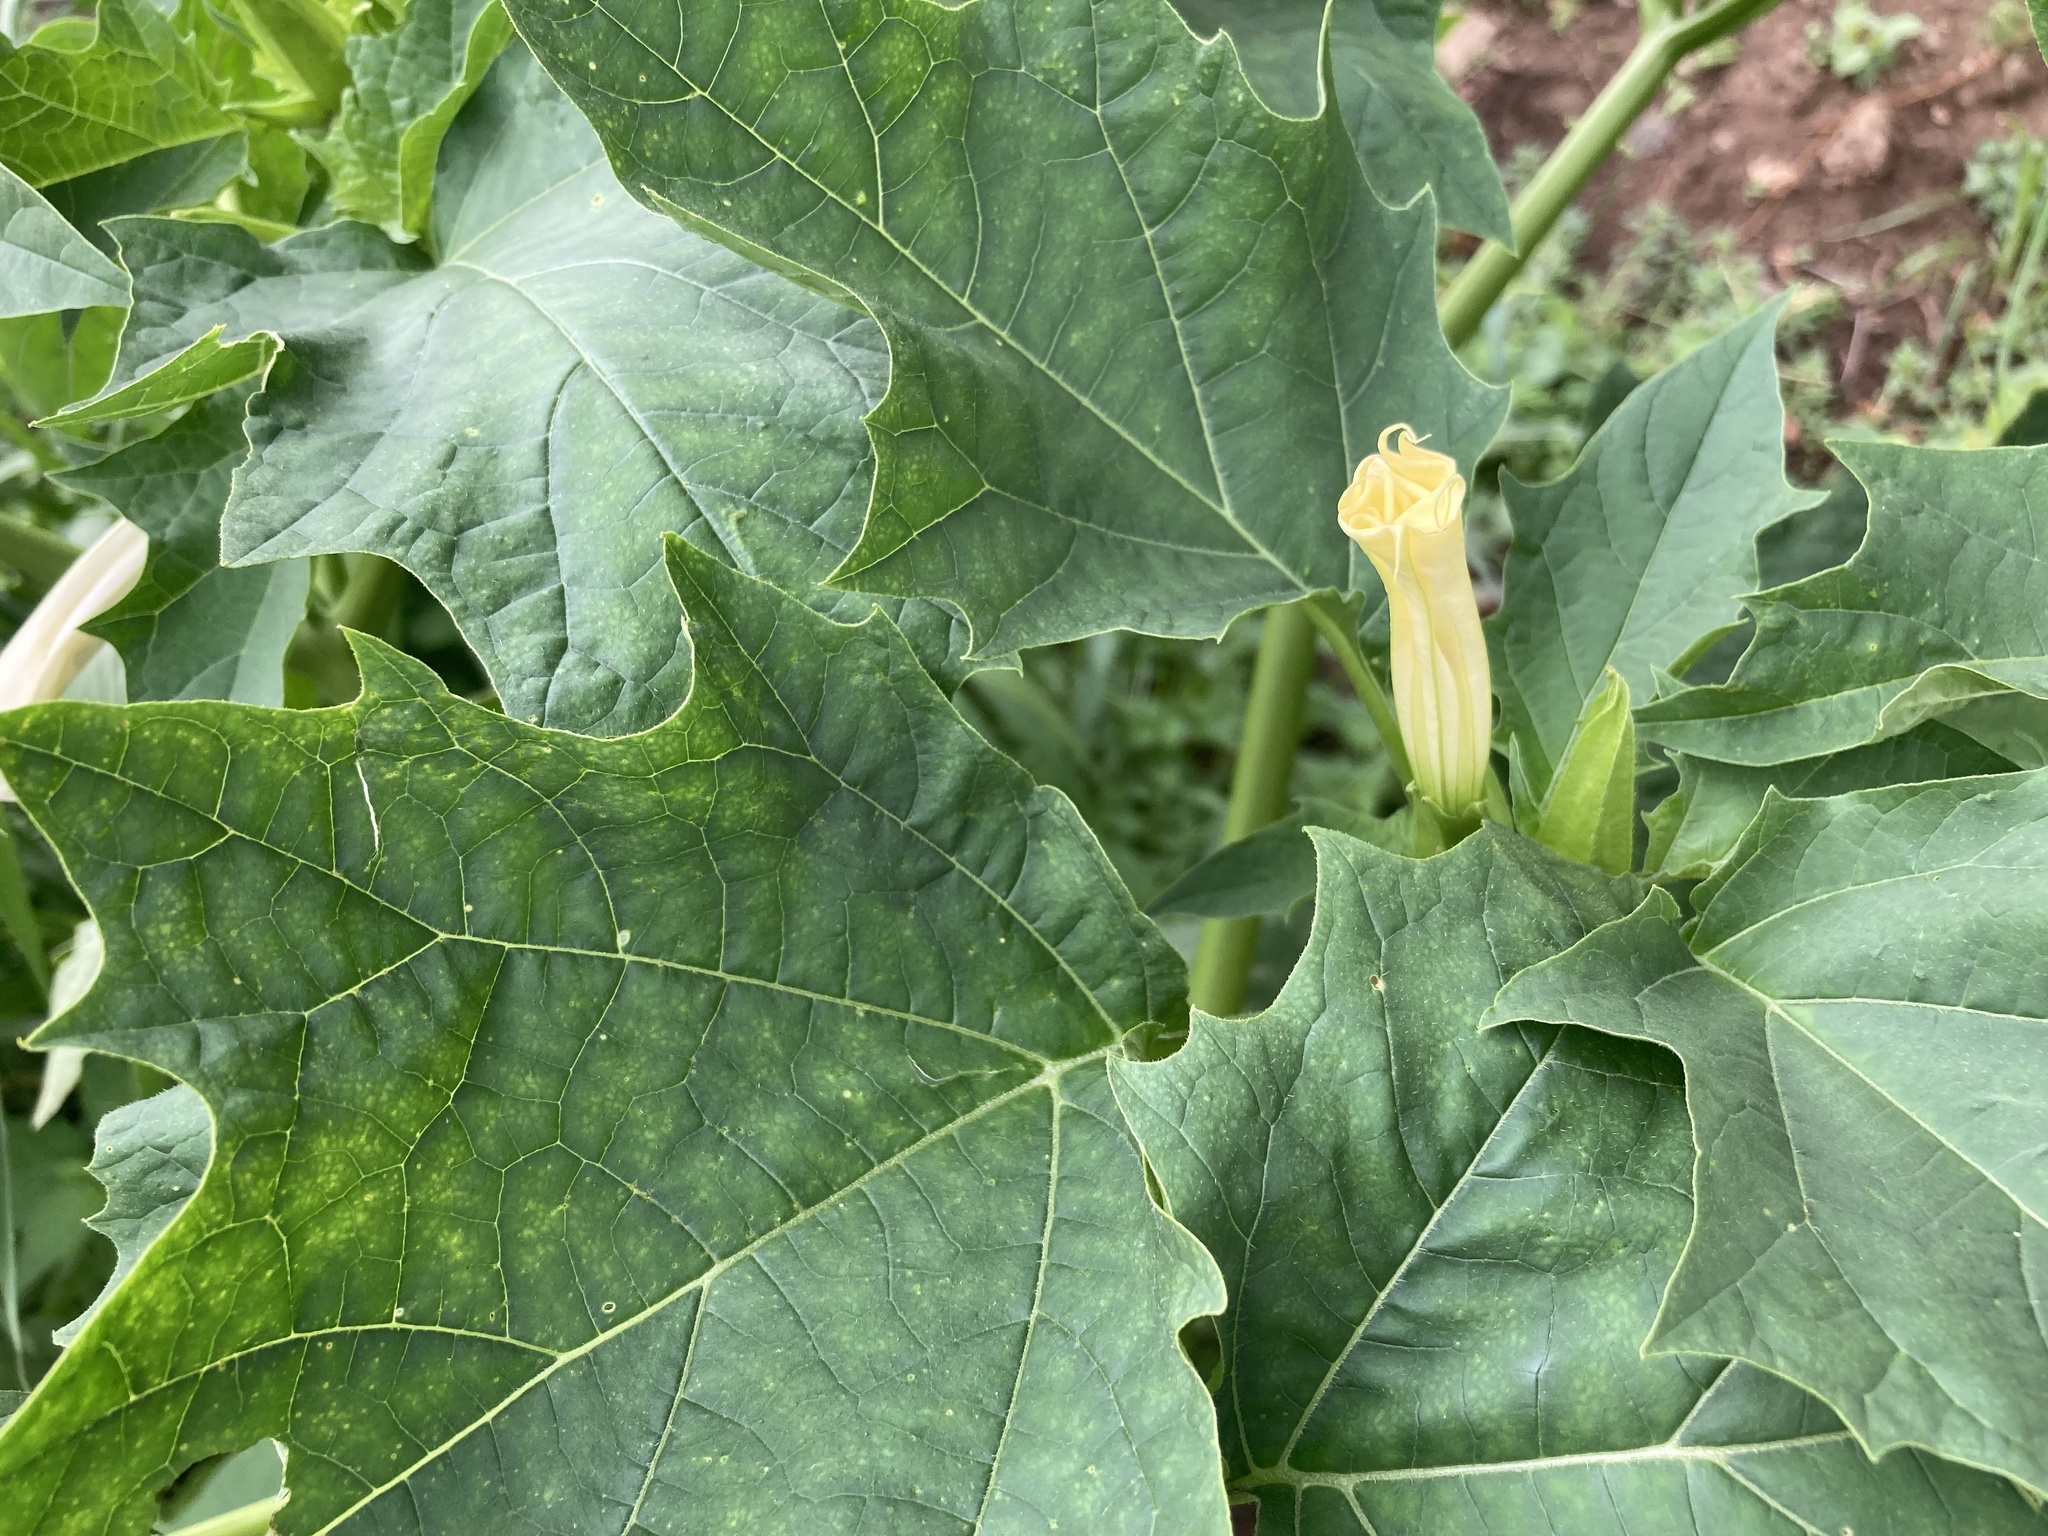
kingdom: Plantae
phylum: Tracheophyta
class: Magnoliopsida
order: Solanales
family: Solanaceae
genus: Datura
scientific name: Datura stramonium
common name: Thorn-apple
